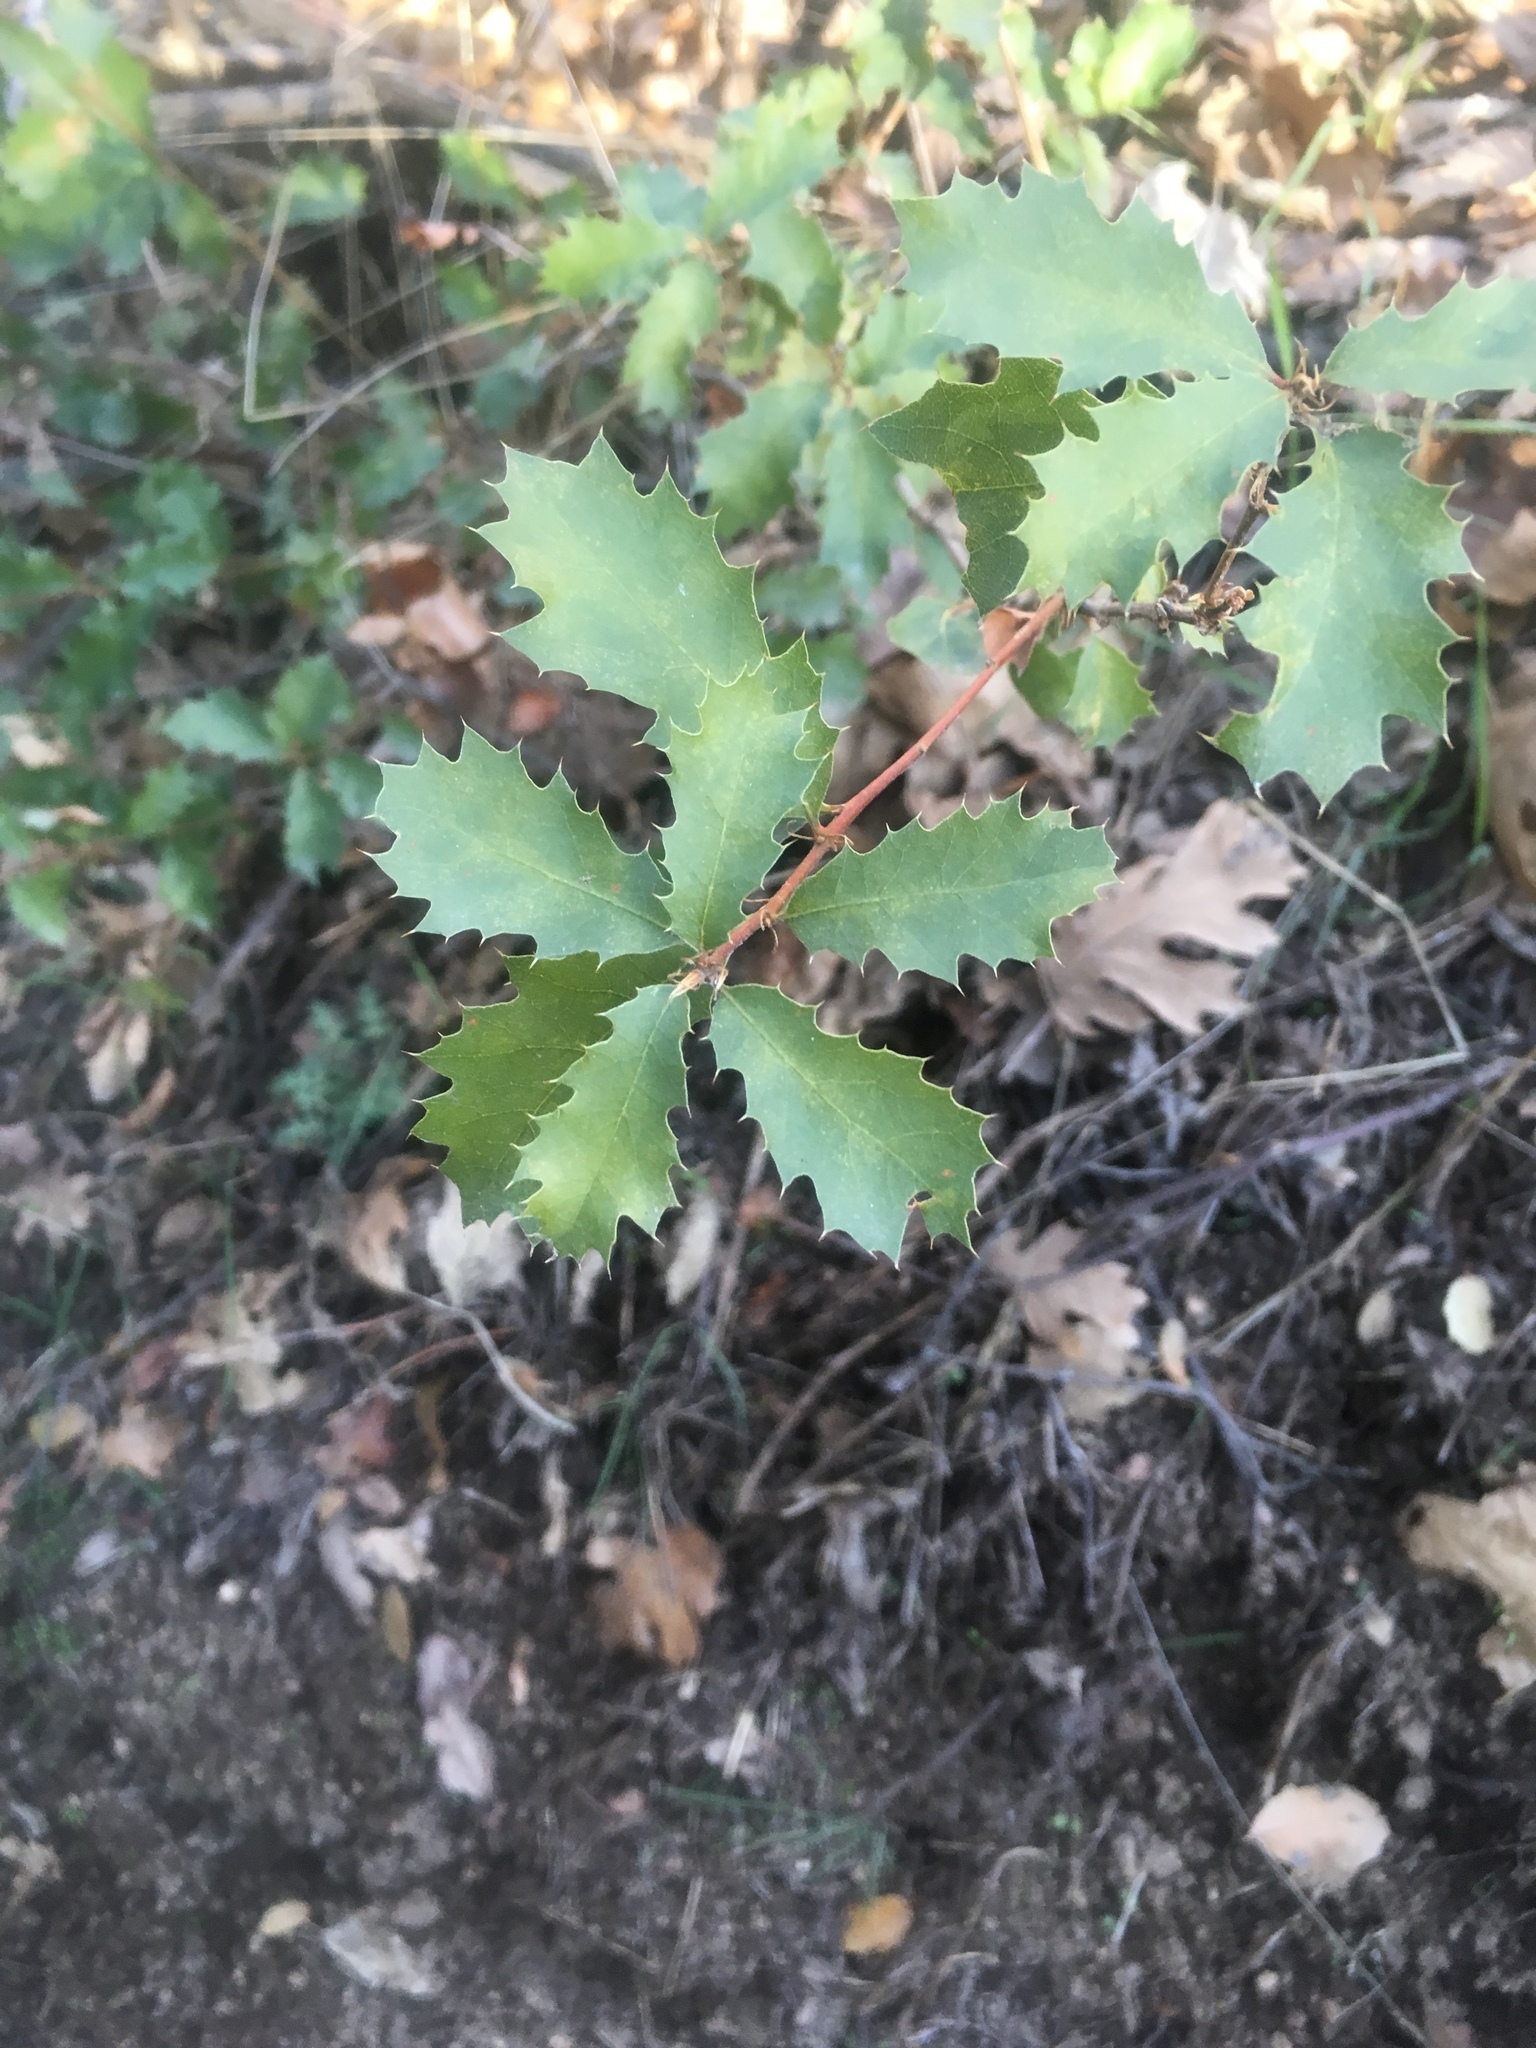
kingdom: Plantae
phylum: Tracheophyta
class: Magnoliopsida
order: Fagales
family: Fagaceae
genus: Quercus
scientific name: Quercus berberidifolia
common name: California scrub oak
